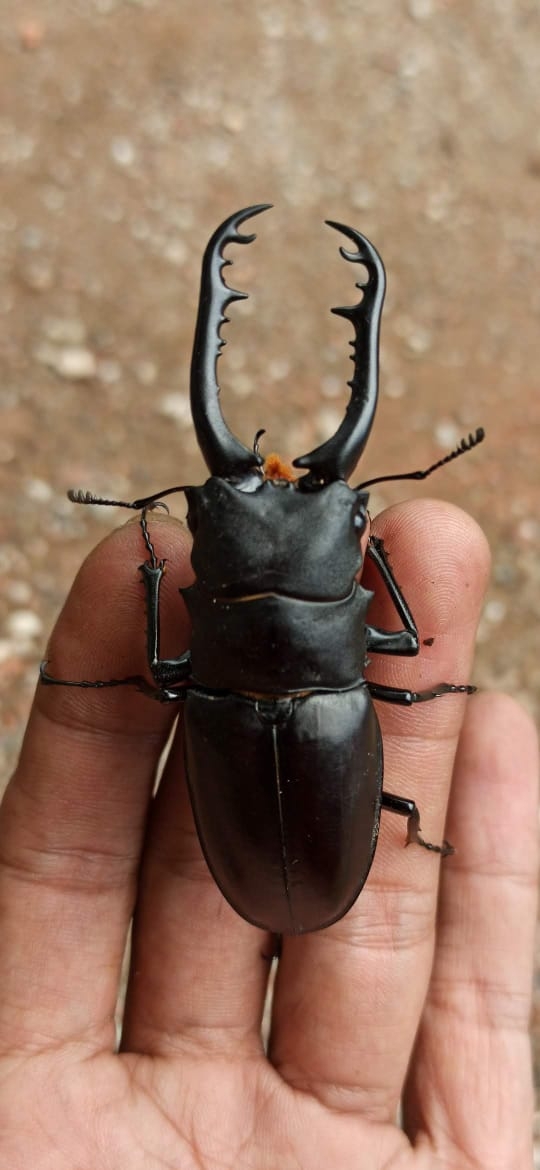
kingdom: Animalia
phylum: Arthropoda
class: Insecta
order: Coleoptera
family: Lucanidae
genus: Prosopocoilus
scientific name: Prosopocoilus girafa
